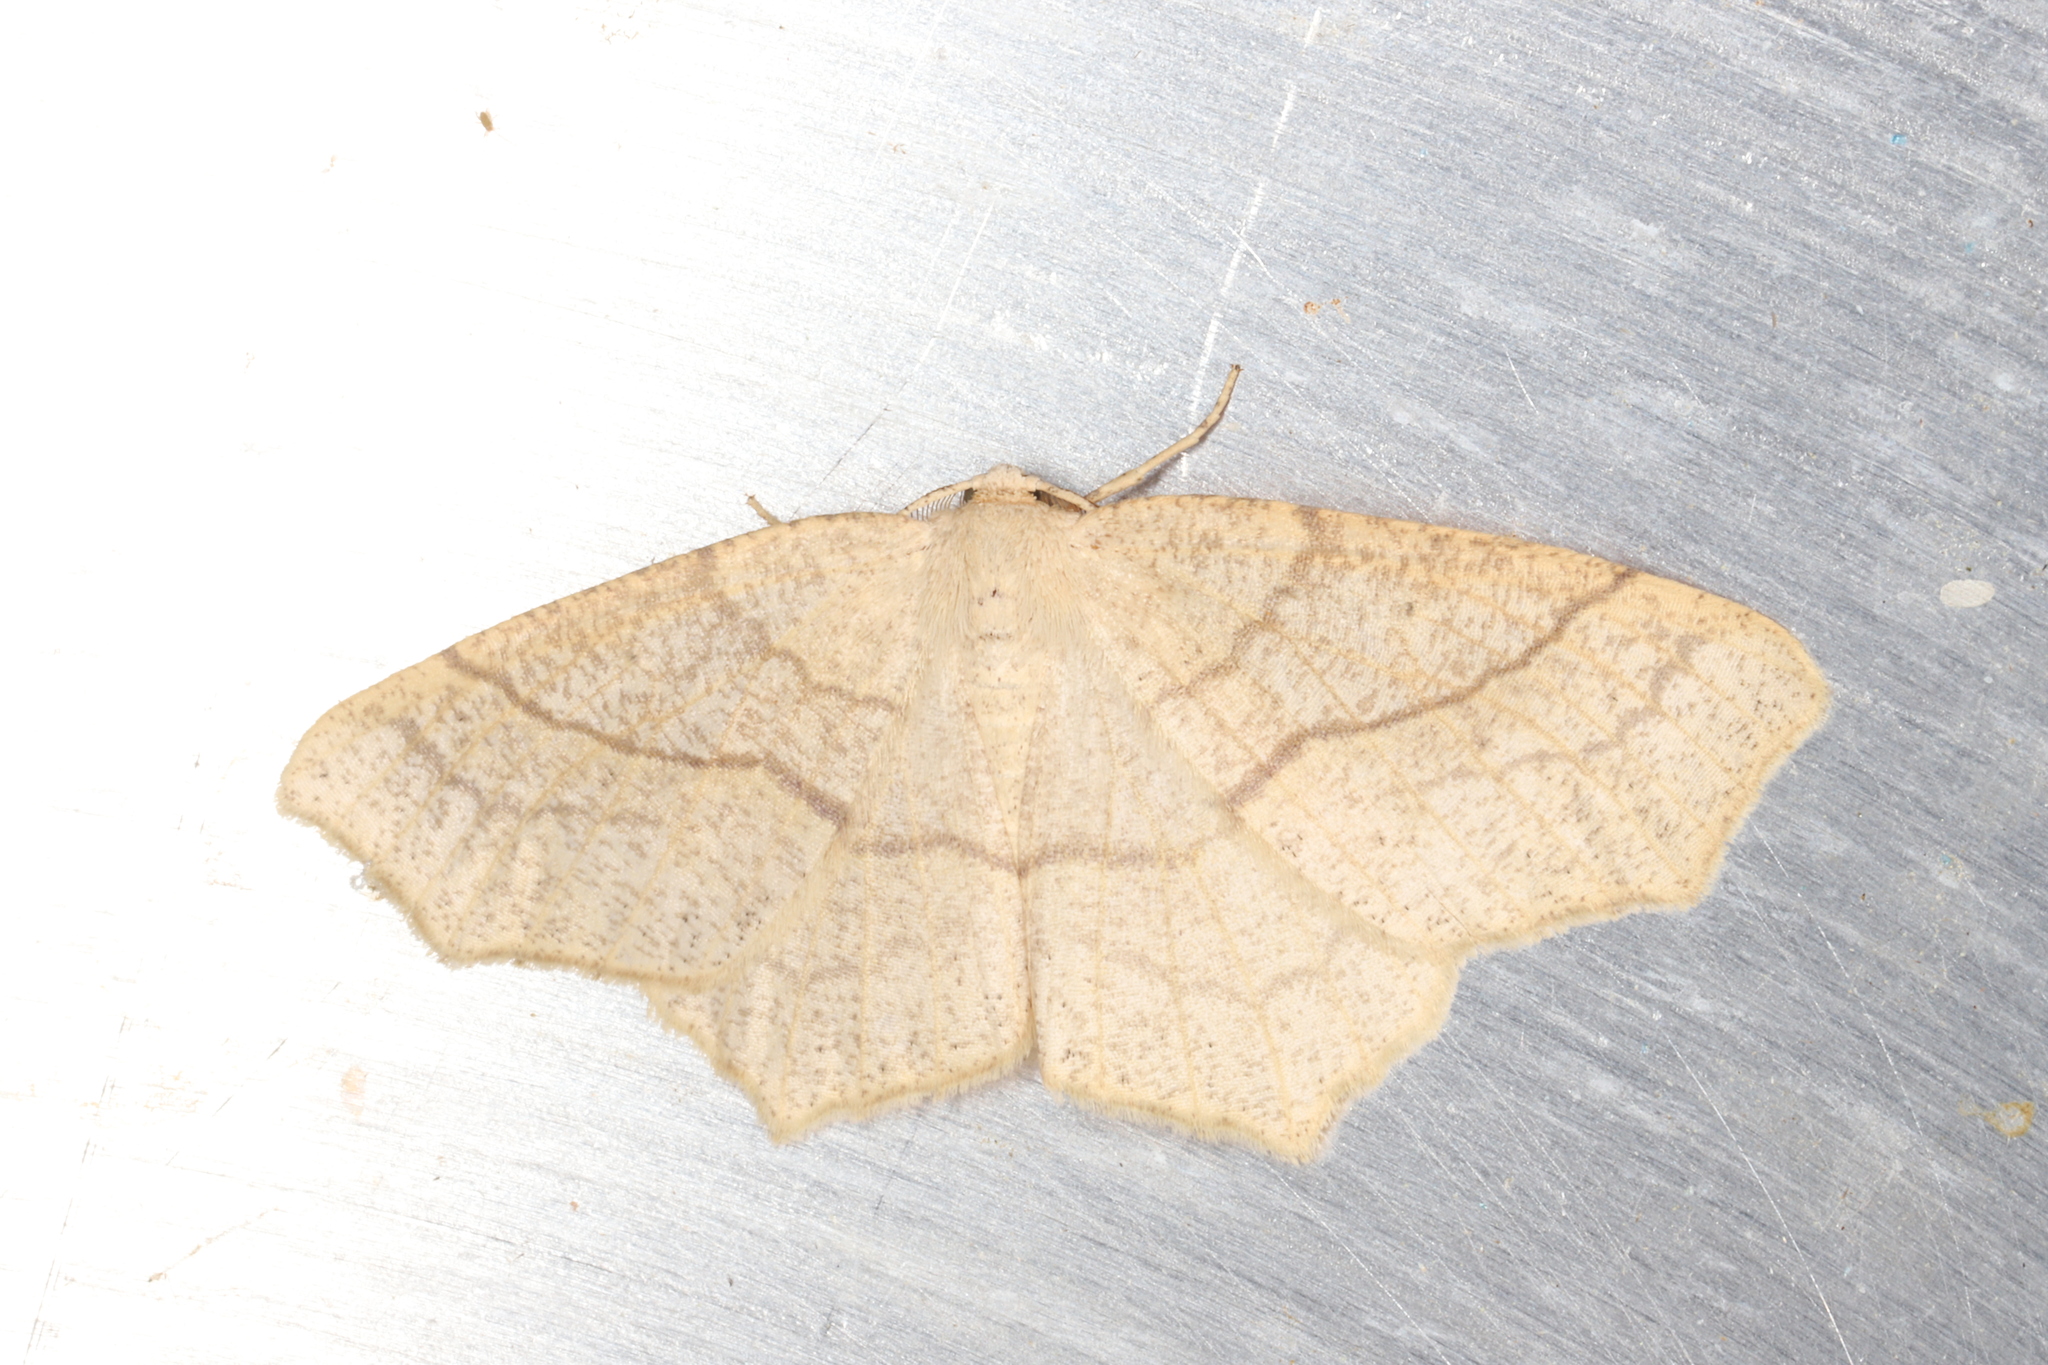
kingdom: Animalia
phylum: Arthropoda
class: Insecta
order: Lepidoptera
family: Geometridae
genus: Besma
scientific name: Besma quercivoraria
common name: Oak besma
